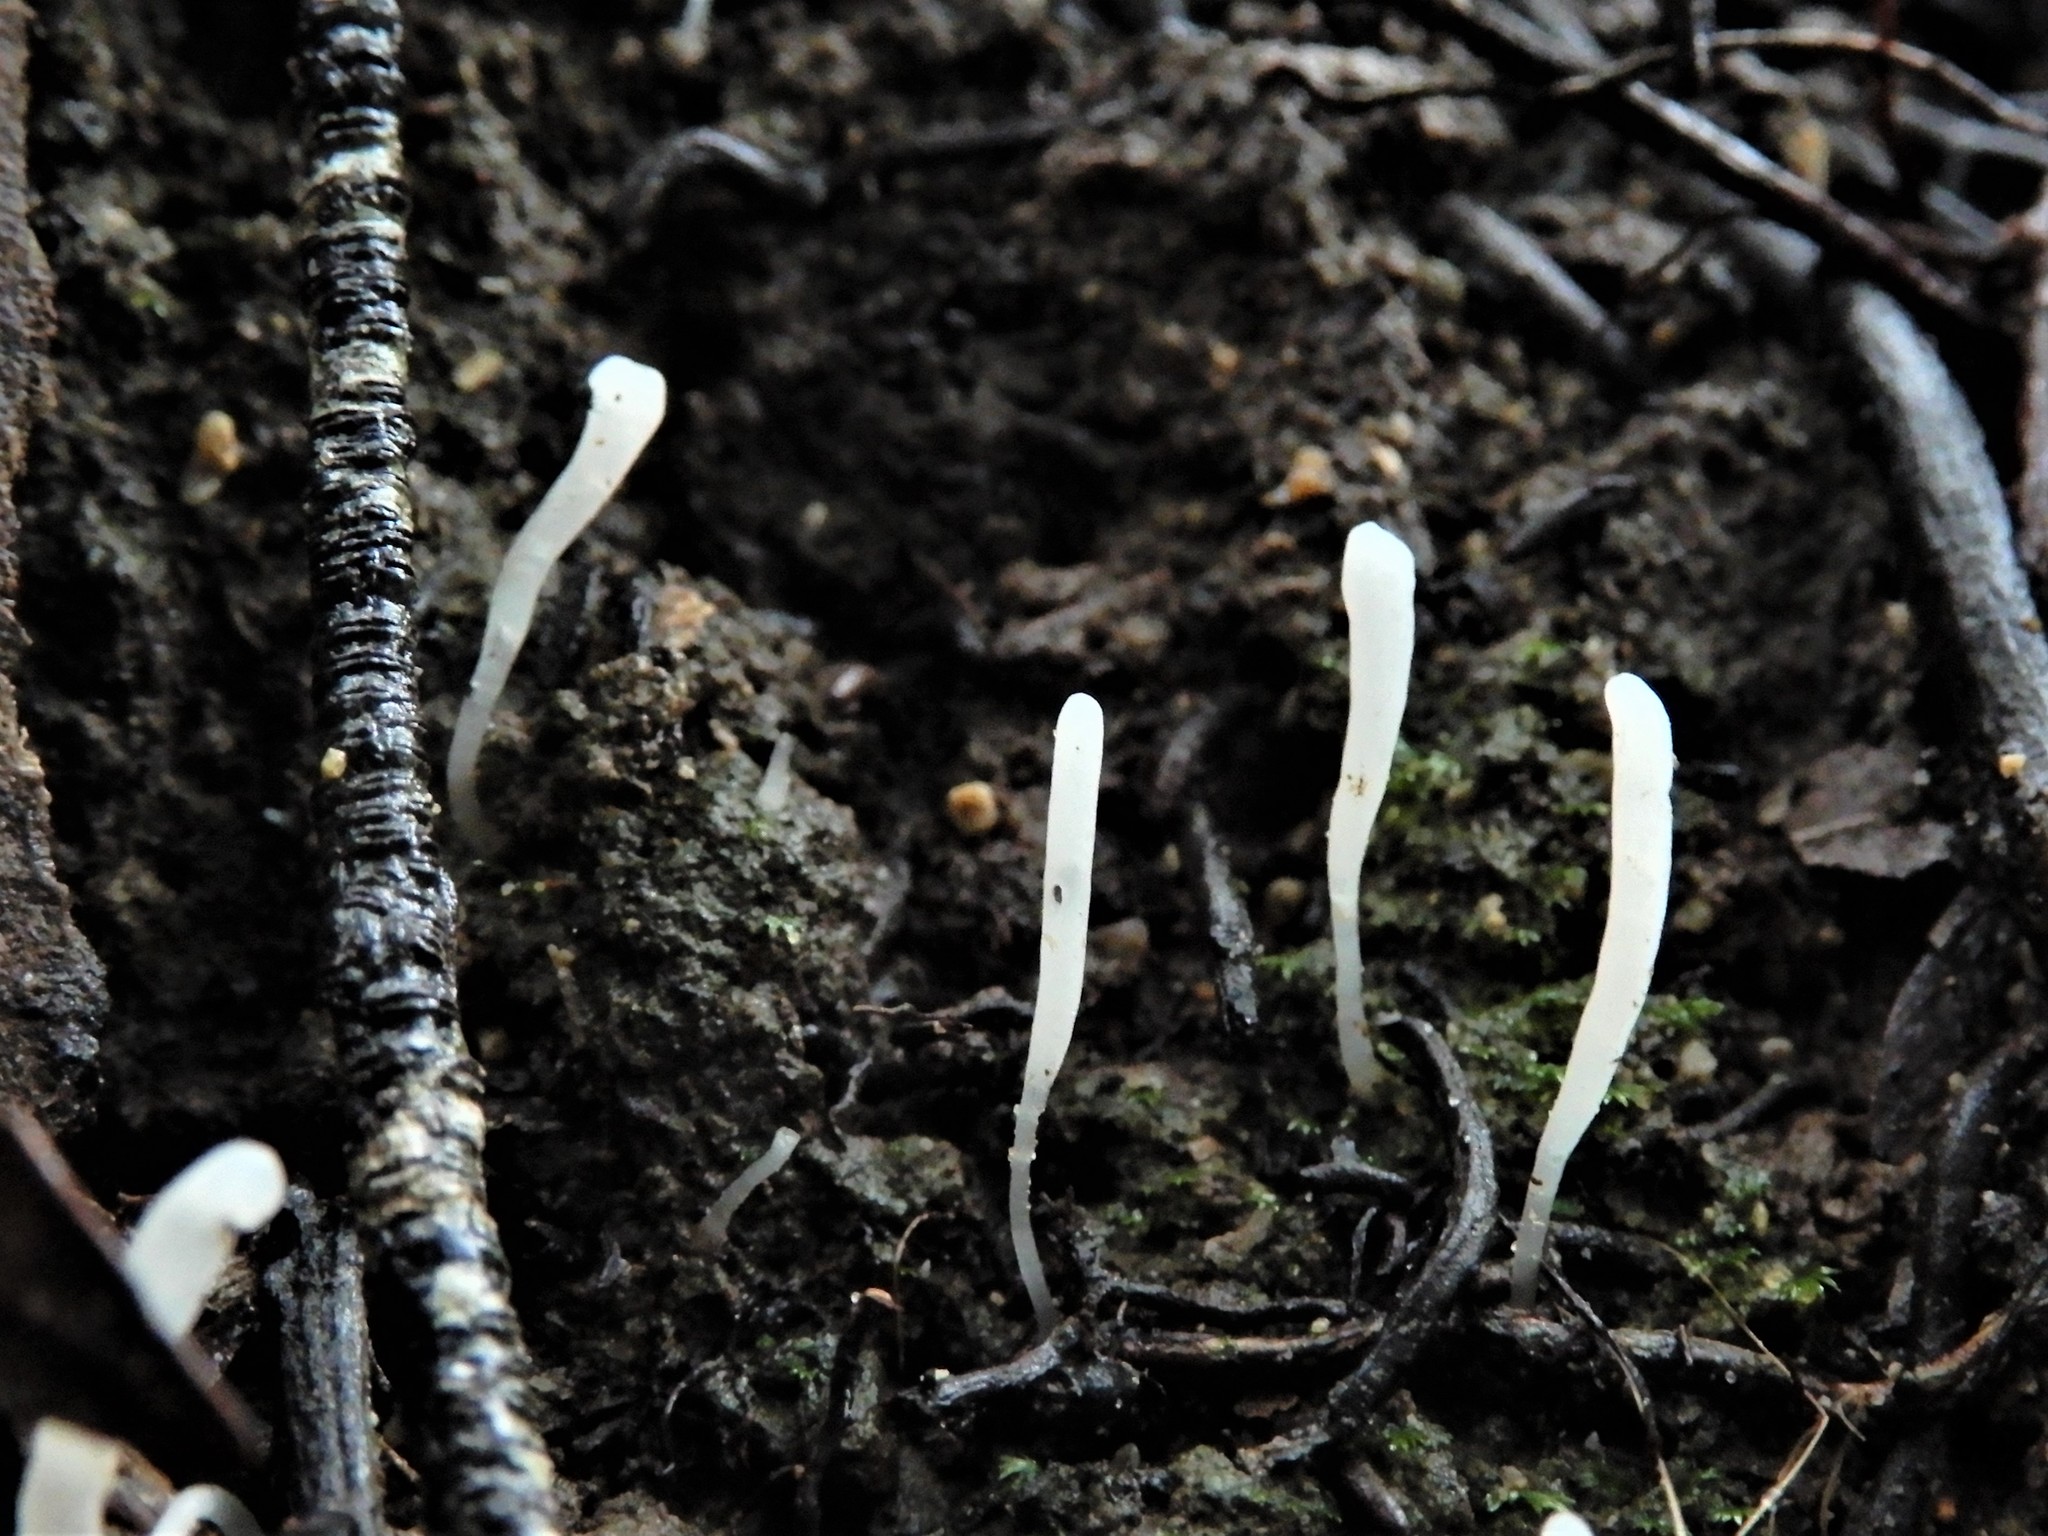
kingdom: Fungi
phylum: Basidiomycota
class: Agaricomycetes
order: Agaricales
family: Clavariaceae
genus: Clavaria
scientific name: Clavaria redoleoalii
